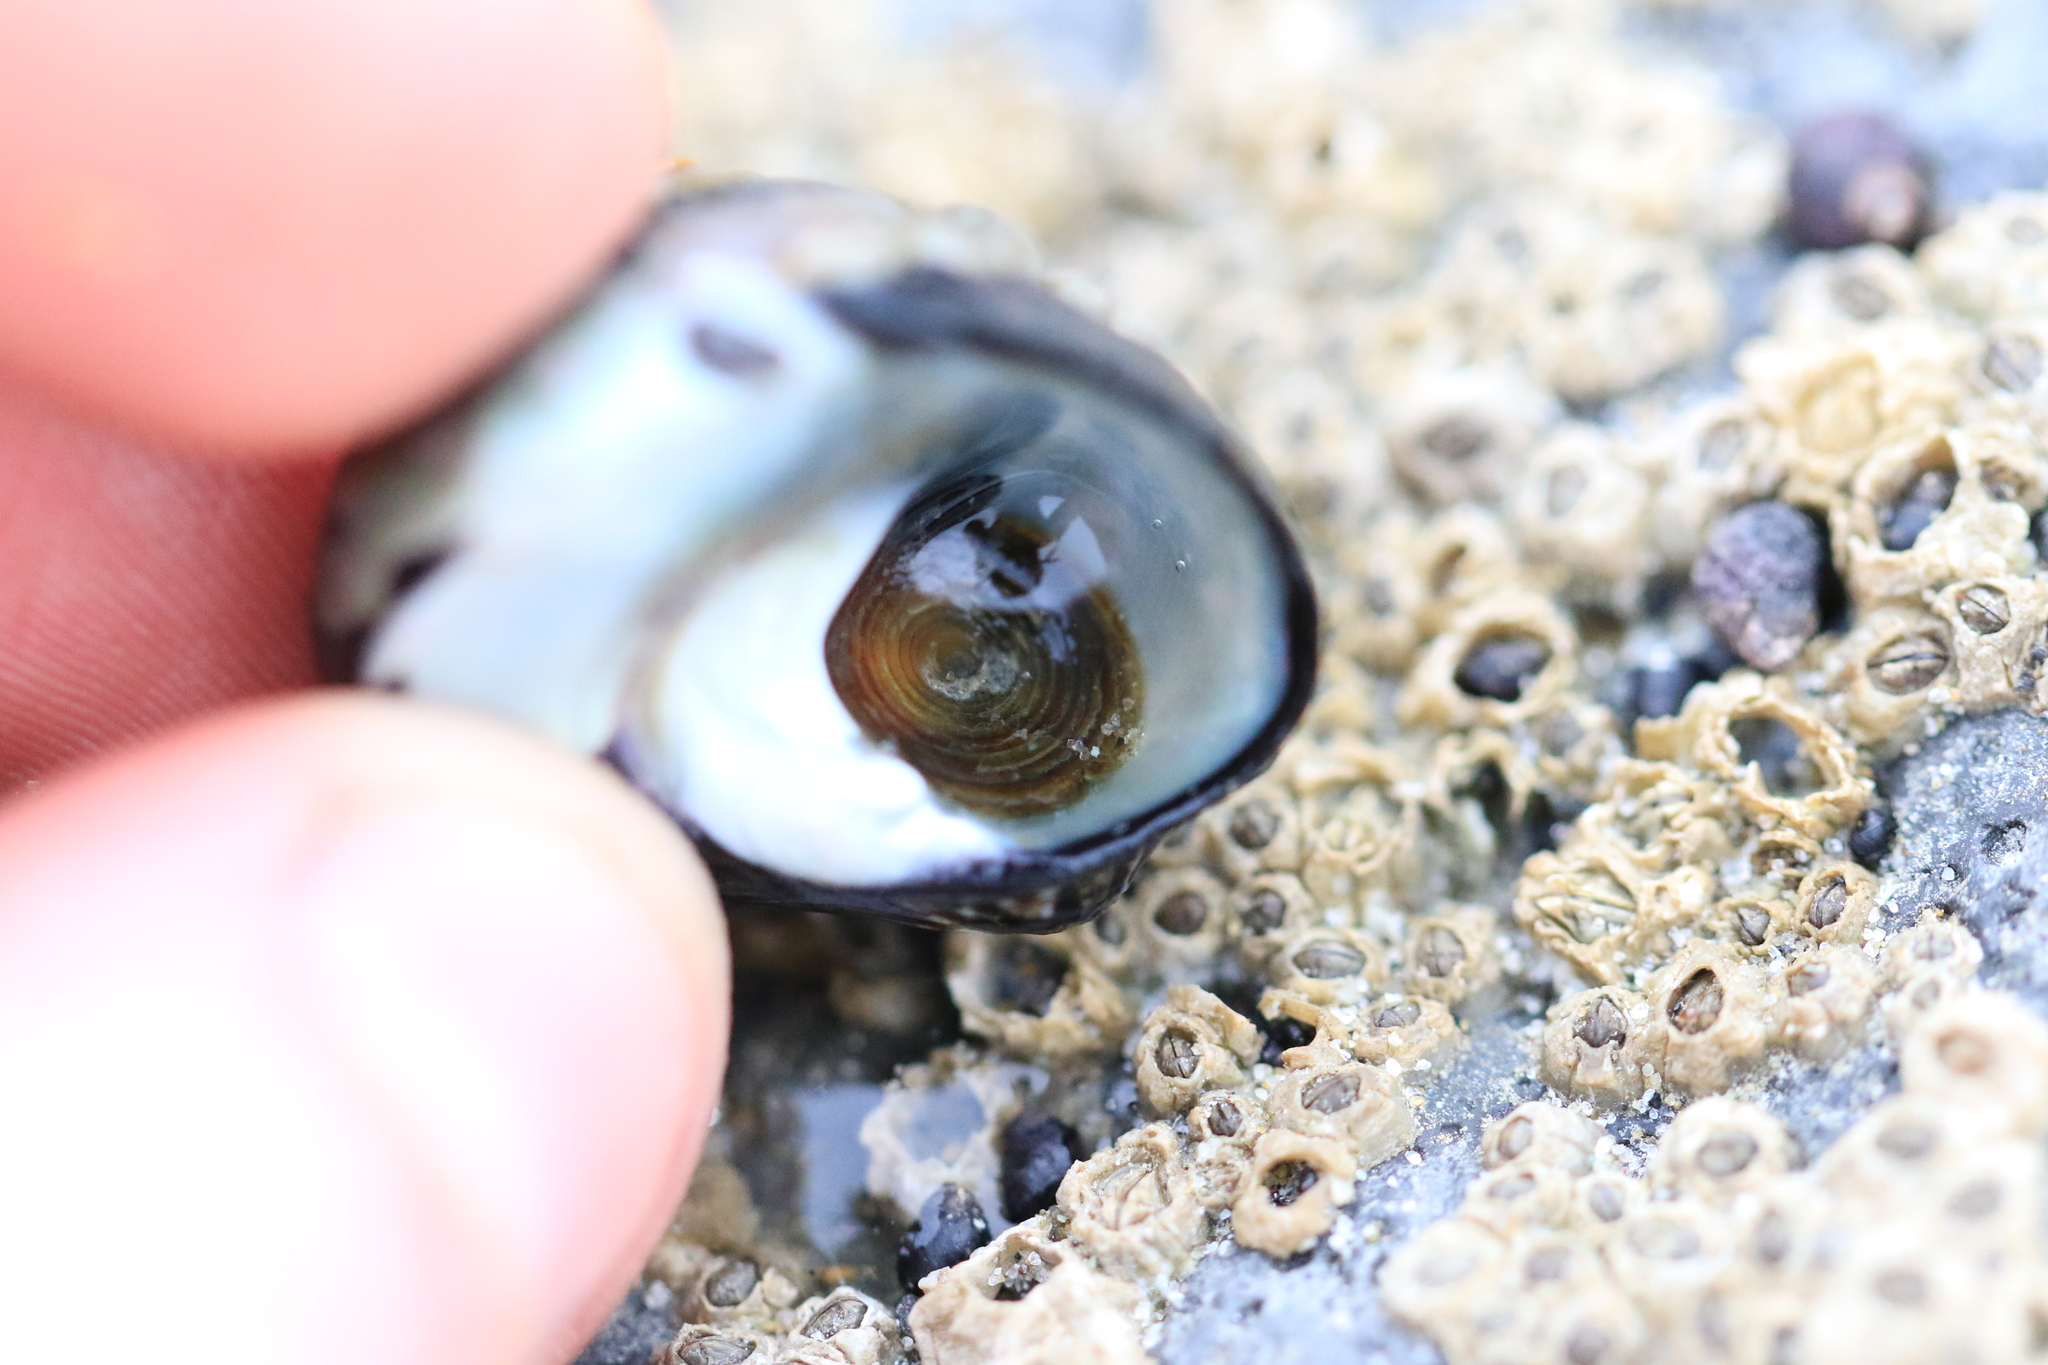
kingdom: Animalia
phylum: Mollusca
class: Gastropoda
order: Trochida
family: Tegulidae
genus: Tegula
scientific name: Tegula funebralis
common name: Black tegula
